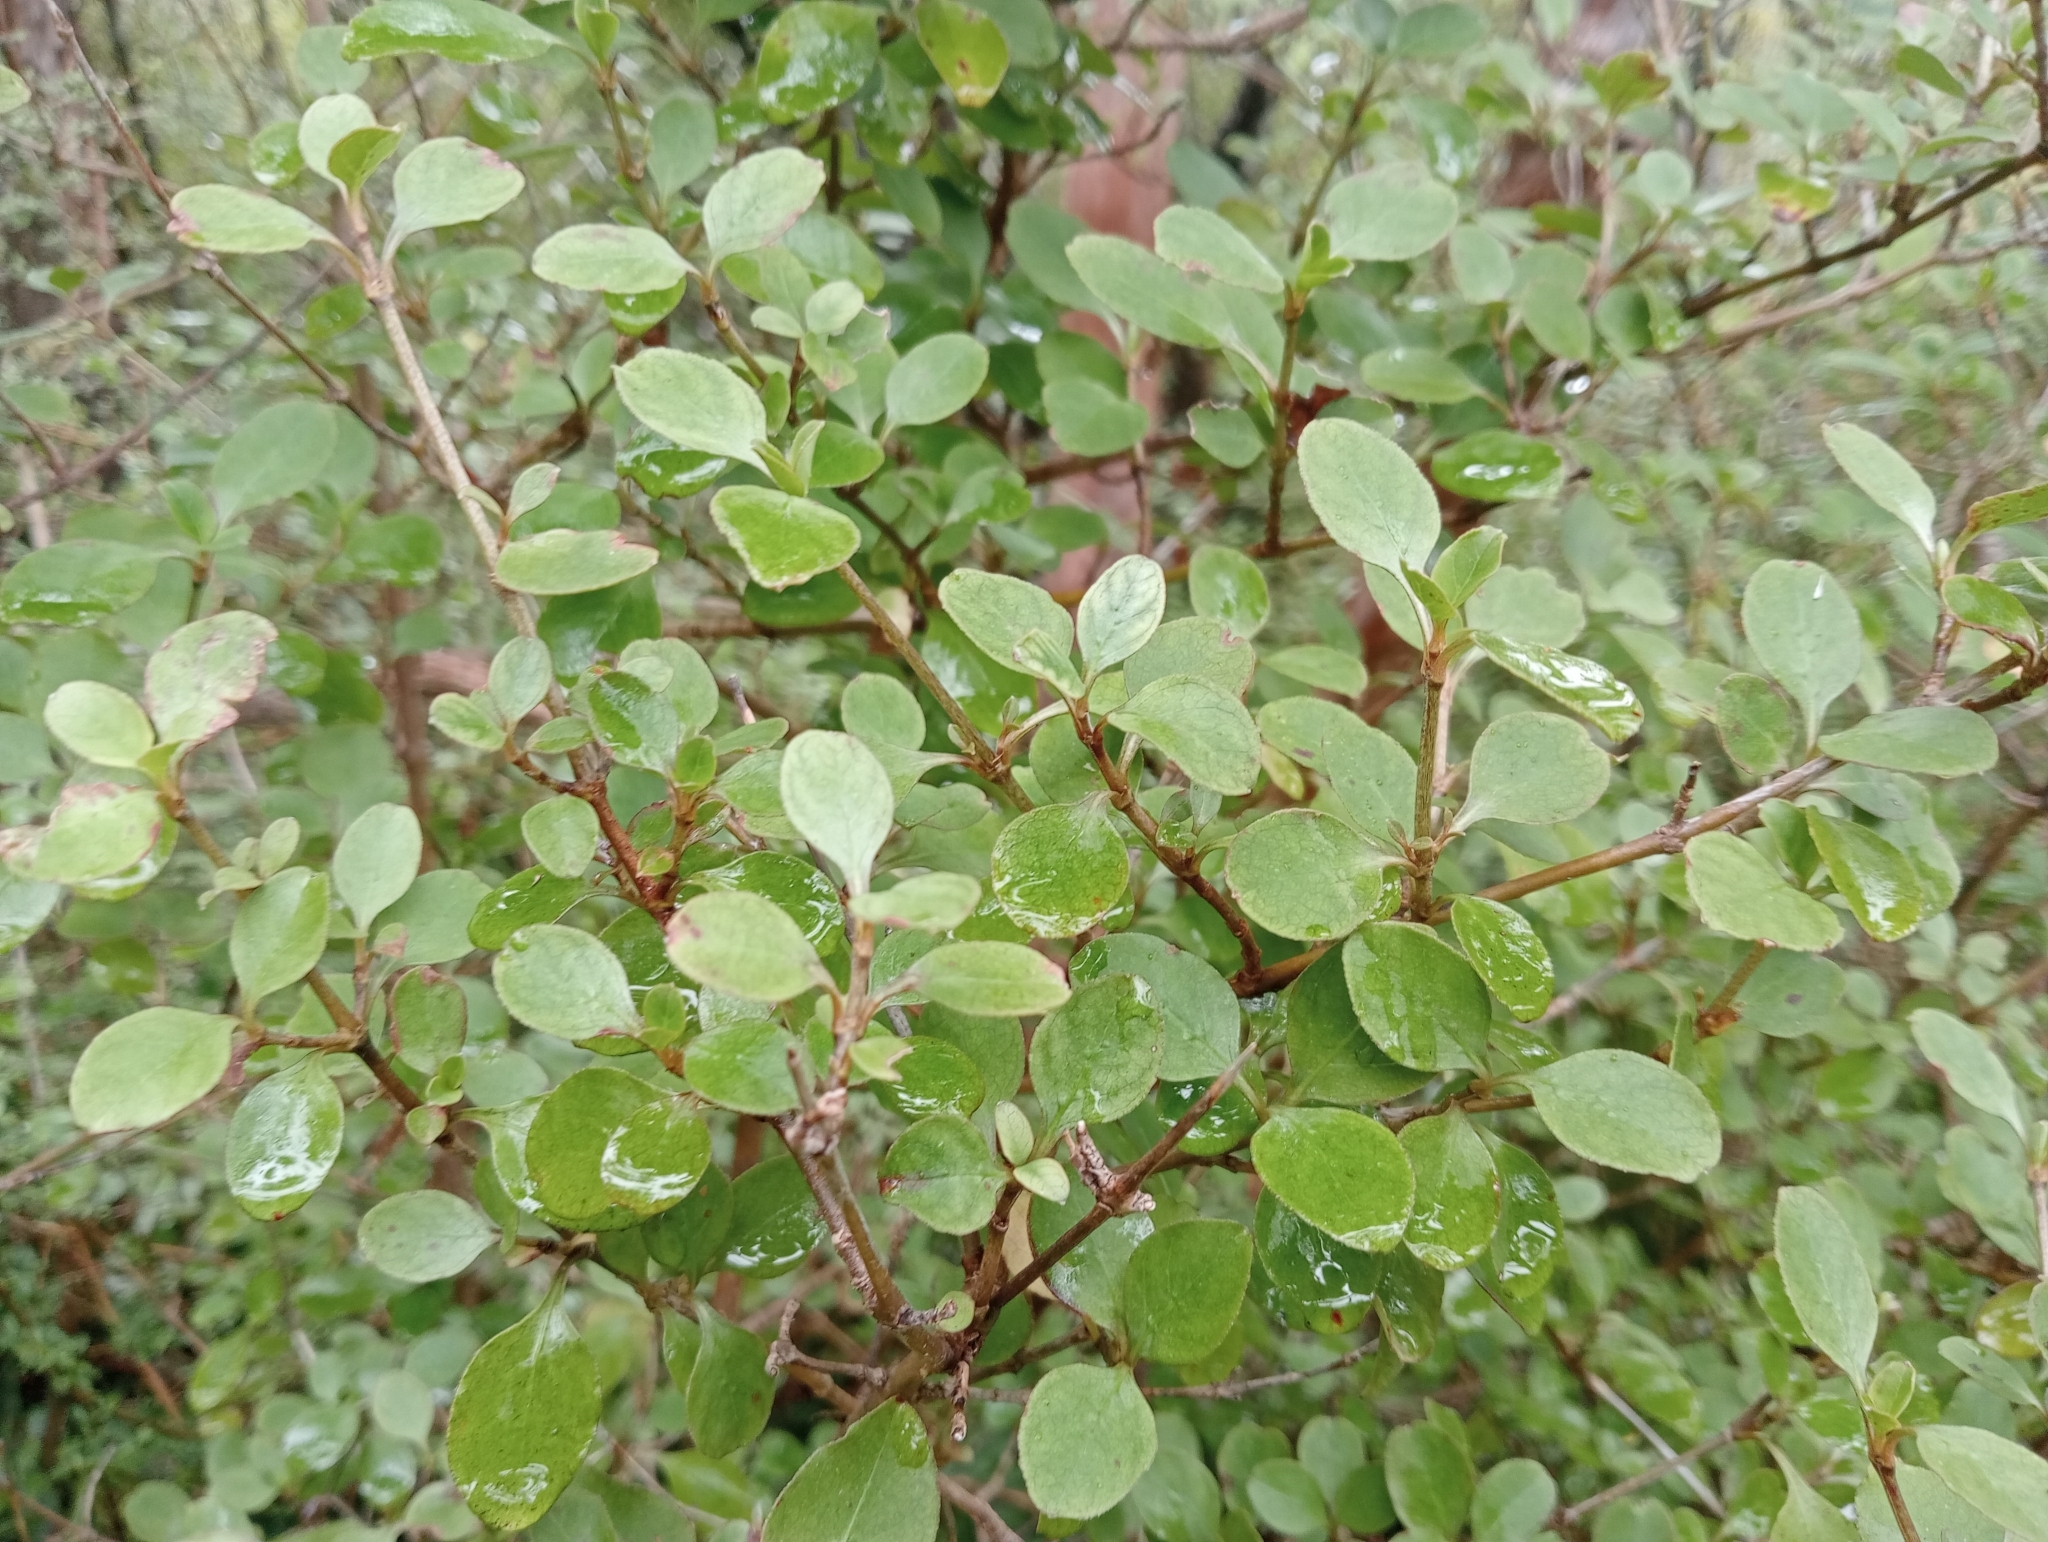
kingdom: Plantae
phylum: Tracheophyta
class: Magnoliopsida
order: Gentianales
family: Rubiaceae
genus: Coprosma
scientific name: Coprosma foetidissima
